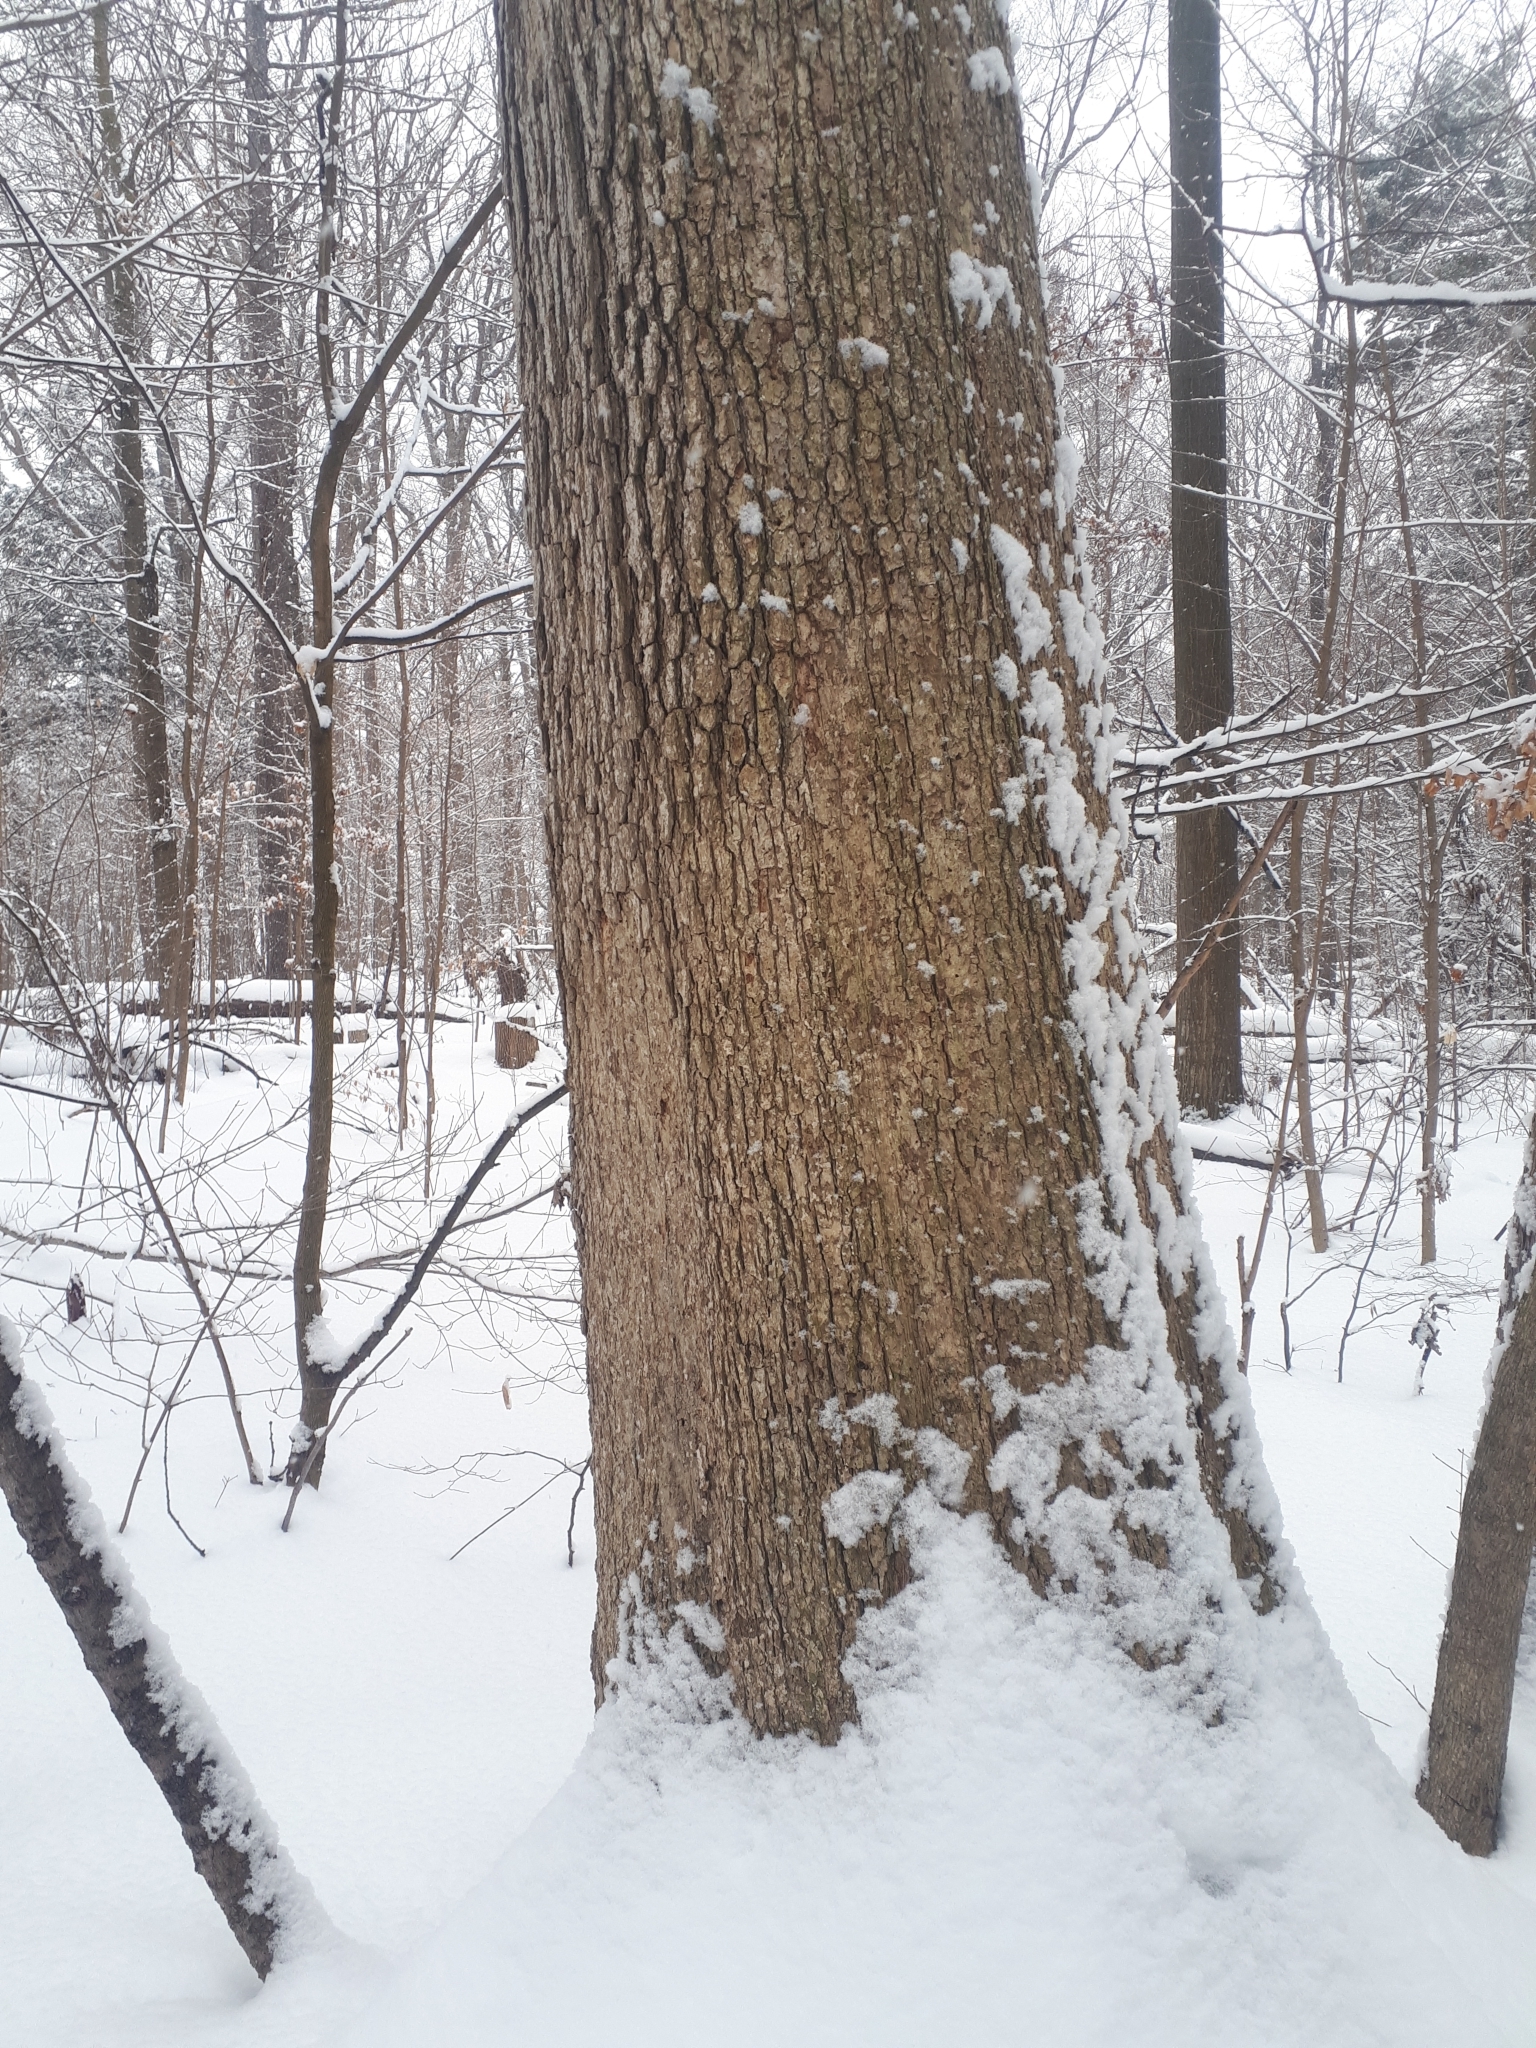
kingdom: Plantae
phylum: Tracheophyta
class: Magnoliopsida
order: Fagales
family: Fagaceae
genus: Quercus
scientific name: Quercus alba
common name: White oak
